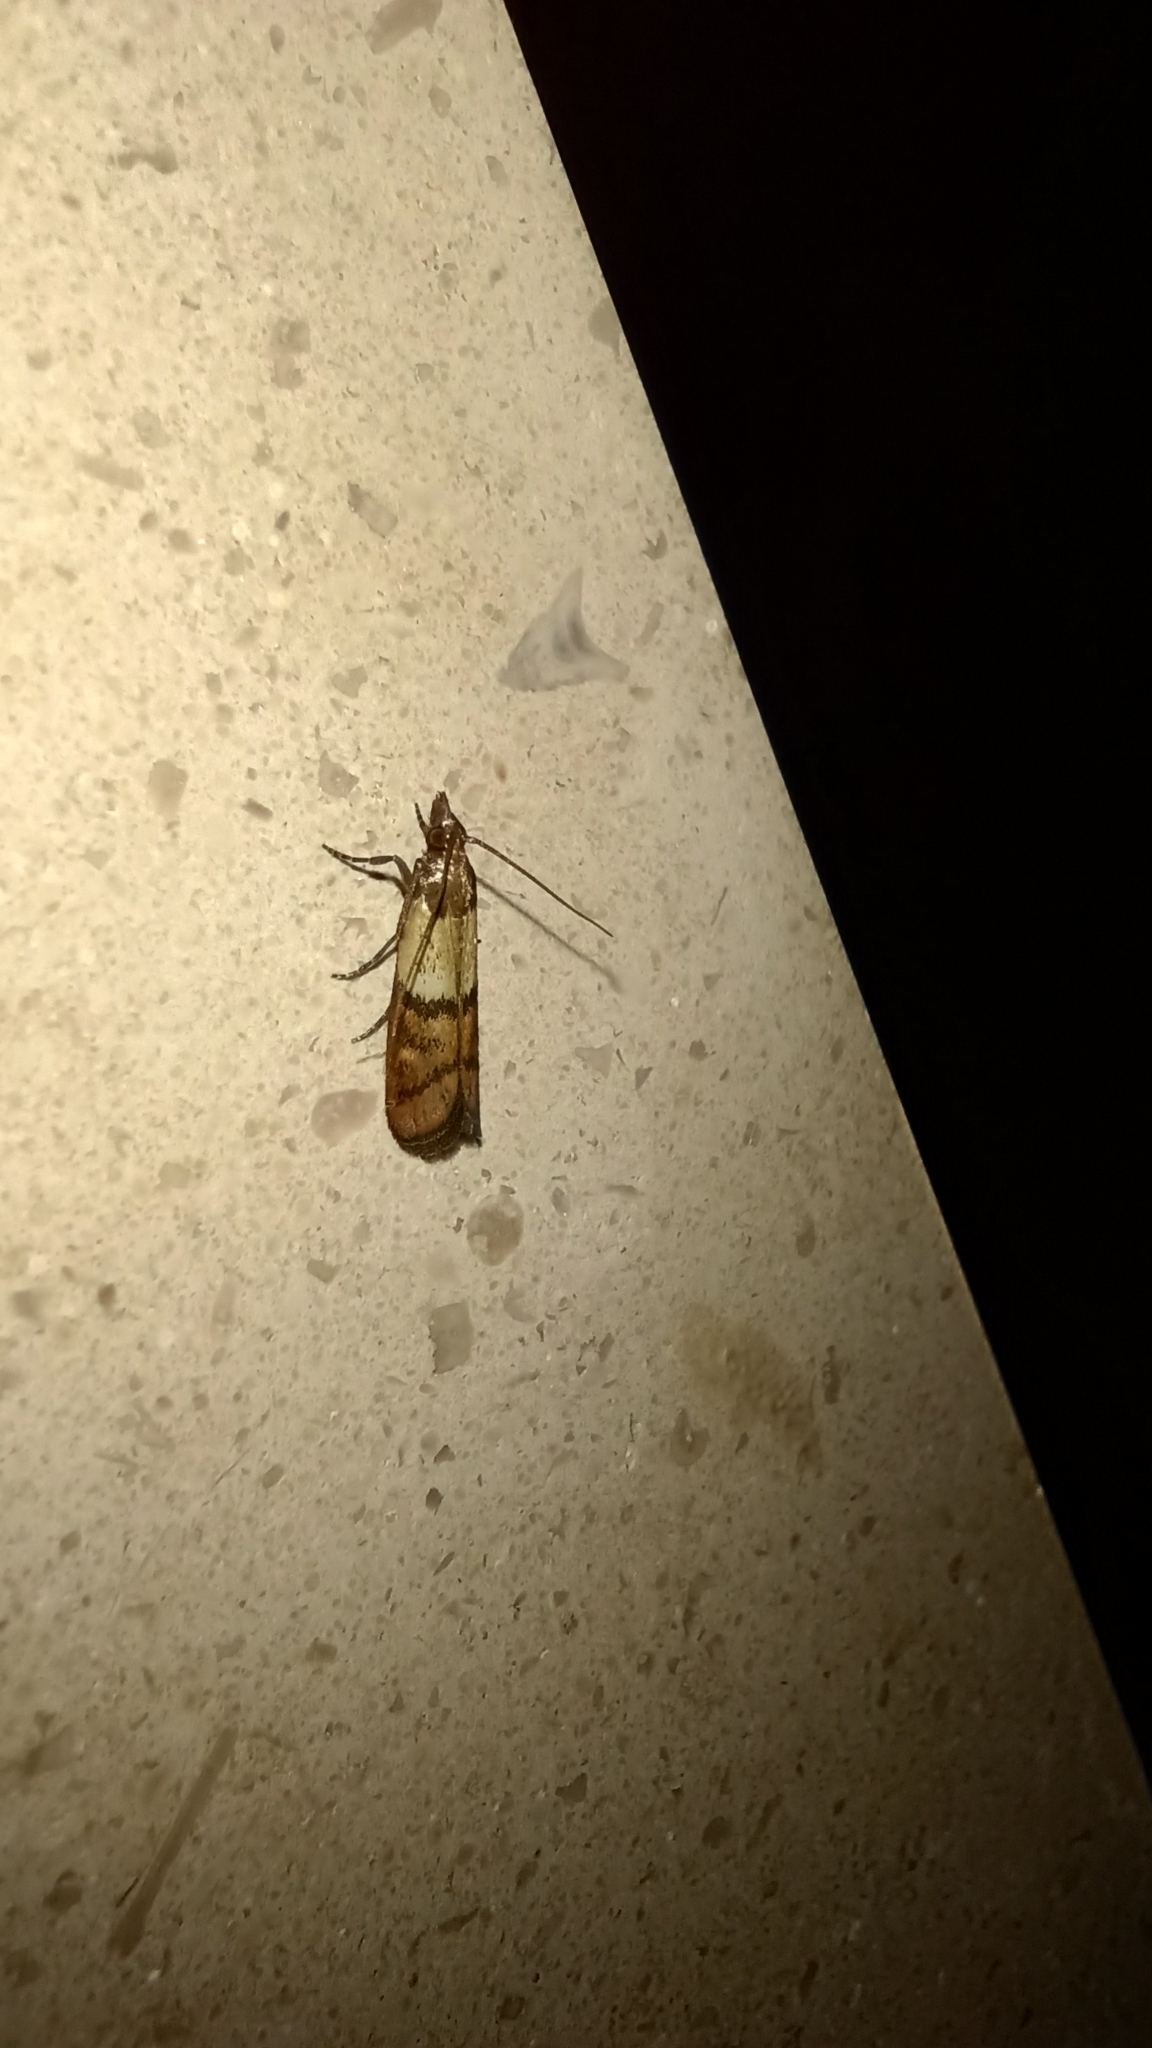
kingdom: Animalia
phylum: Arthropoda
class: Insecta
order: Lepidoptera
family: Pyralidae
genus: Plodia
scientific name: Plodia interpunctella
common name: Indian meal moth
